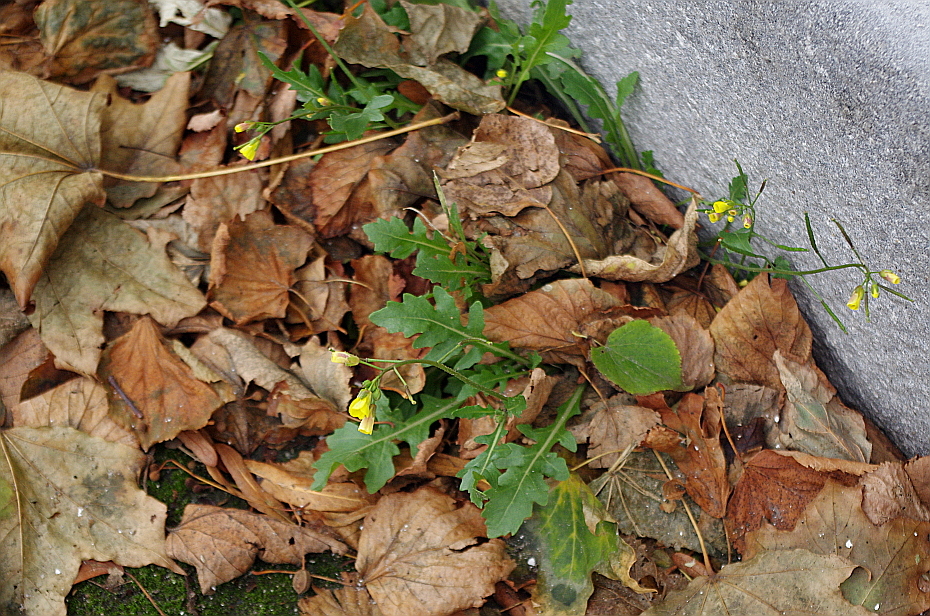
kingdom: Plantae
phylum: Tracheophyta
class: Magnoliopsida
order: Brassicales
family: Brassicaceae
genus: Diplotaxis
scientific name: Diplotaxis muralis
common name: Annual wall-rocket
